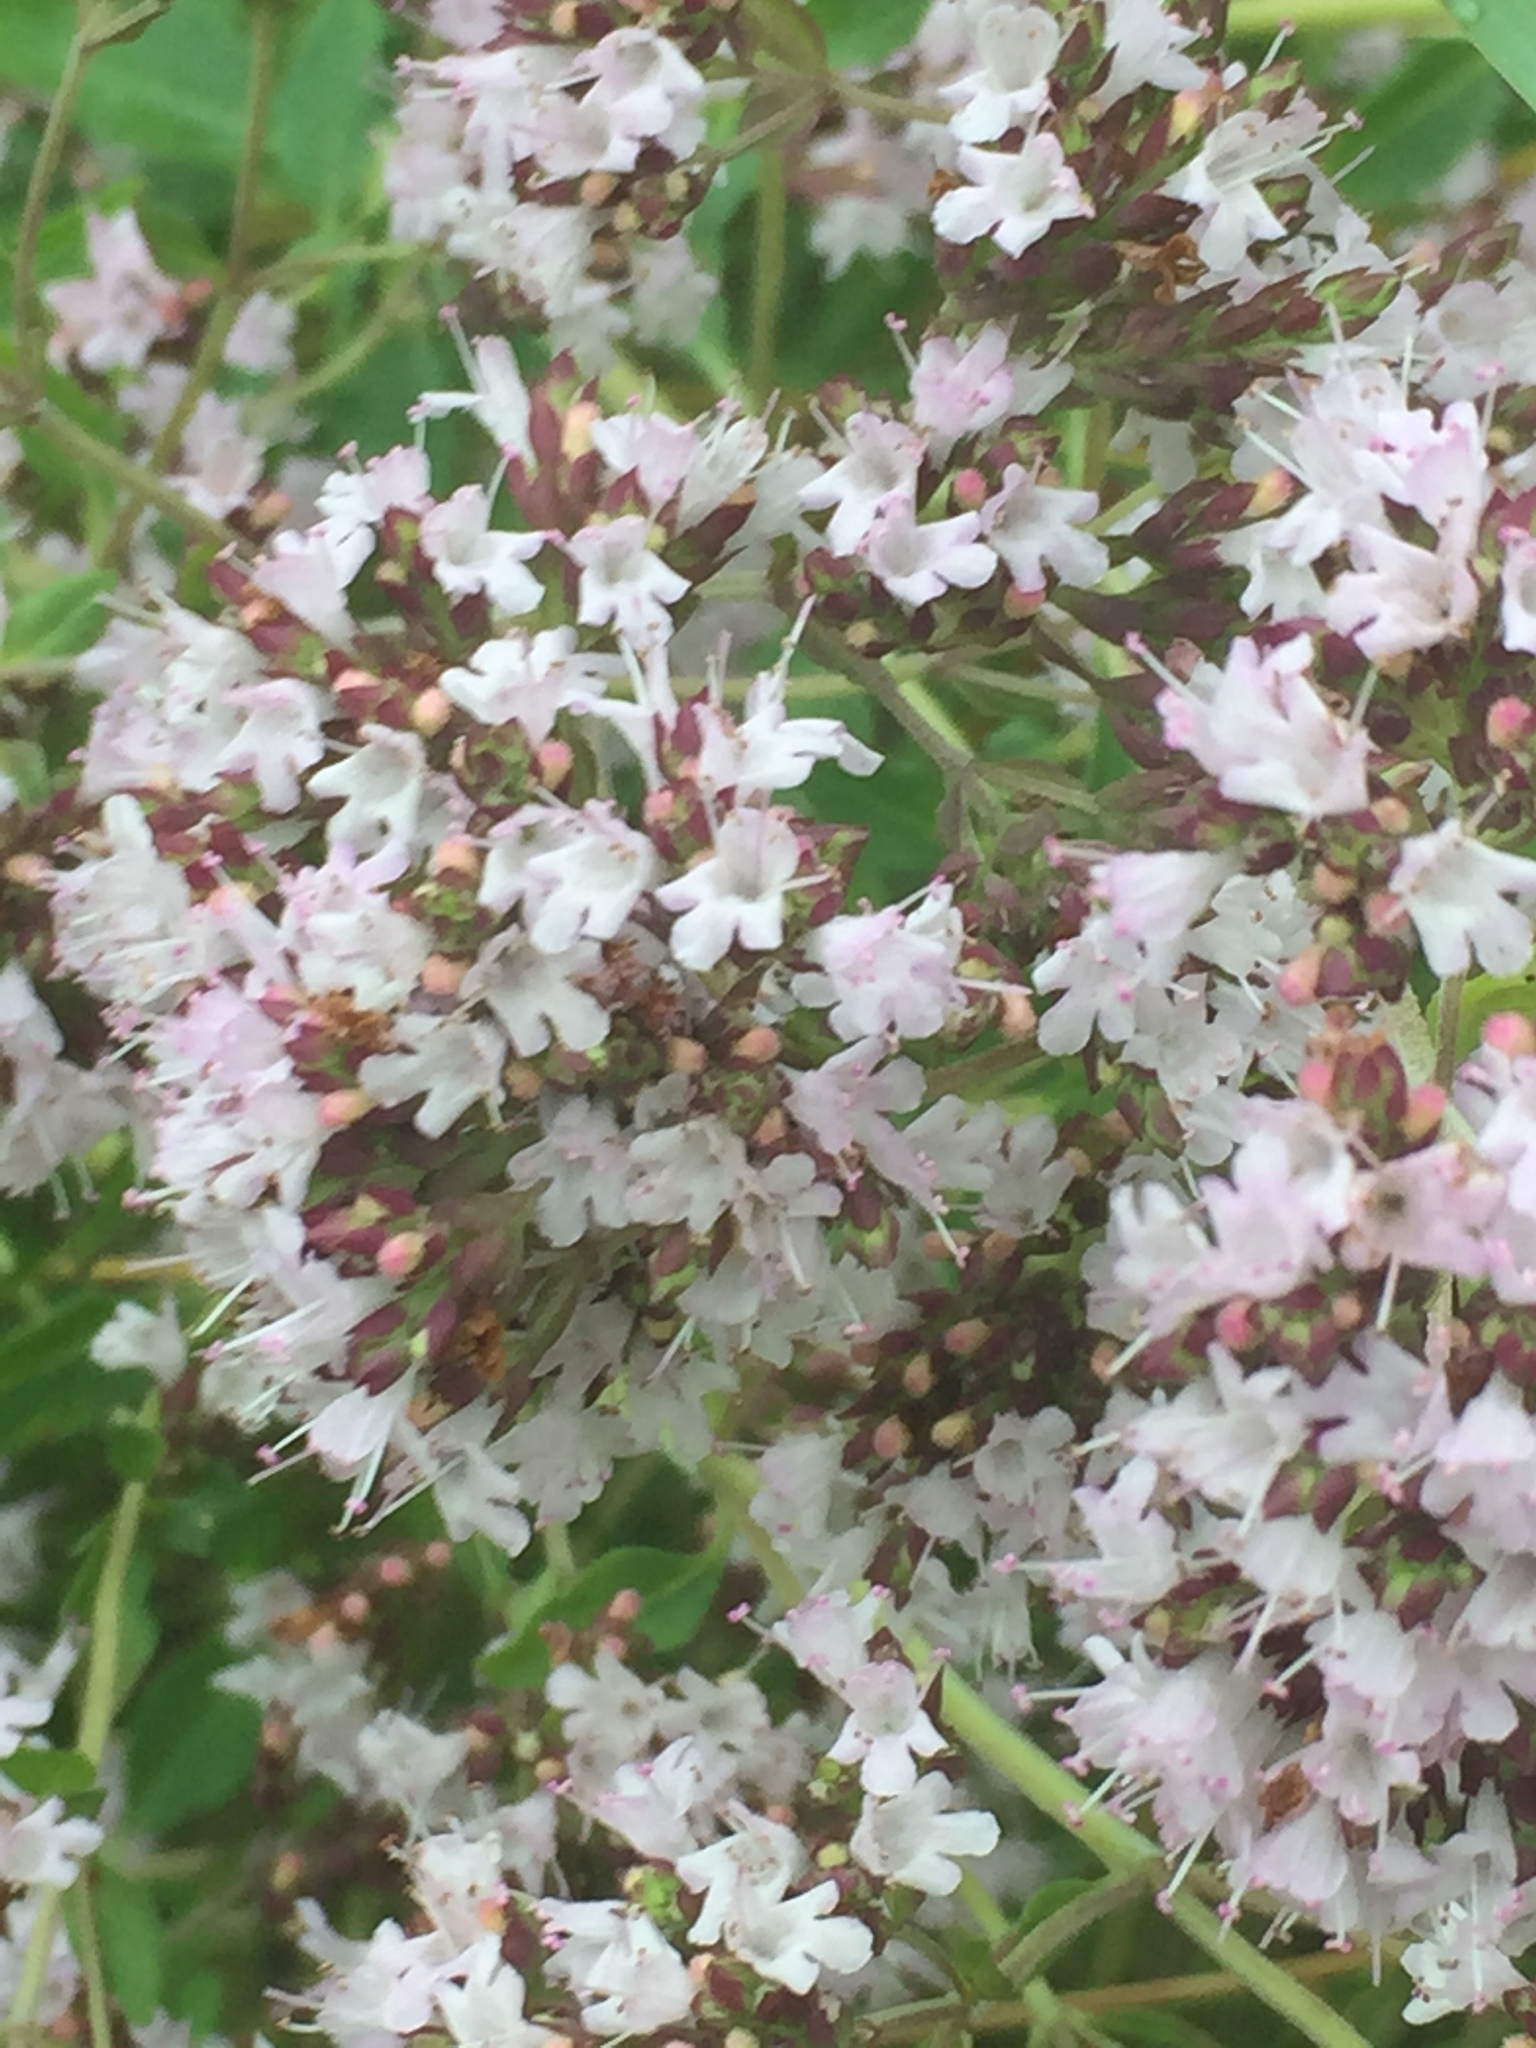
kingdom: Plantae
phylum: Tracheophyta
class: Magnoliopsida
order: Lamiales
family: Lamiaceae
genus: Origanum
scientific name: Origanum vulgare
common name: Wild marjoram
